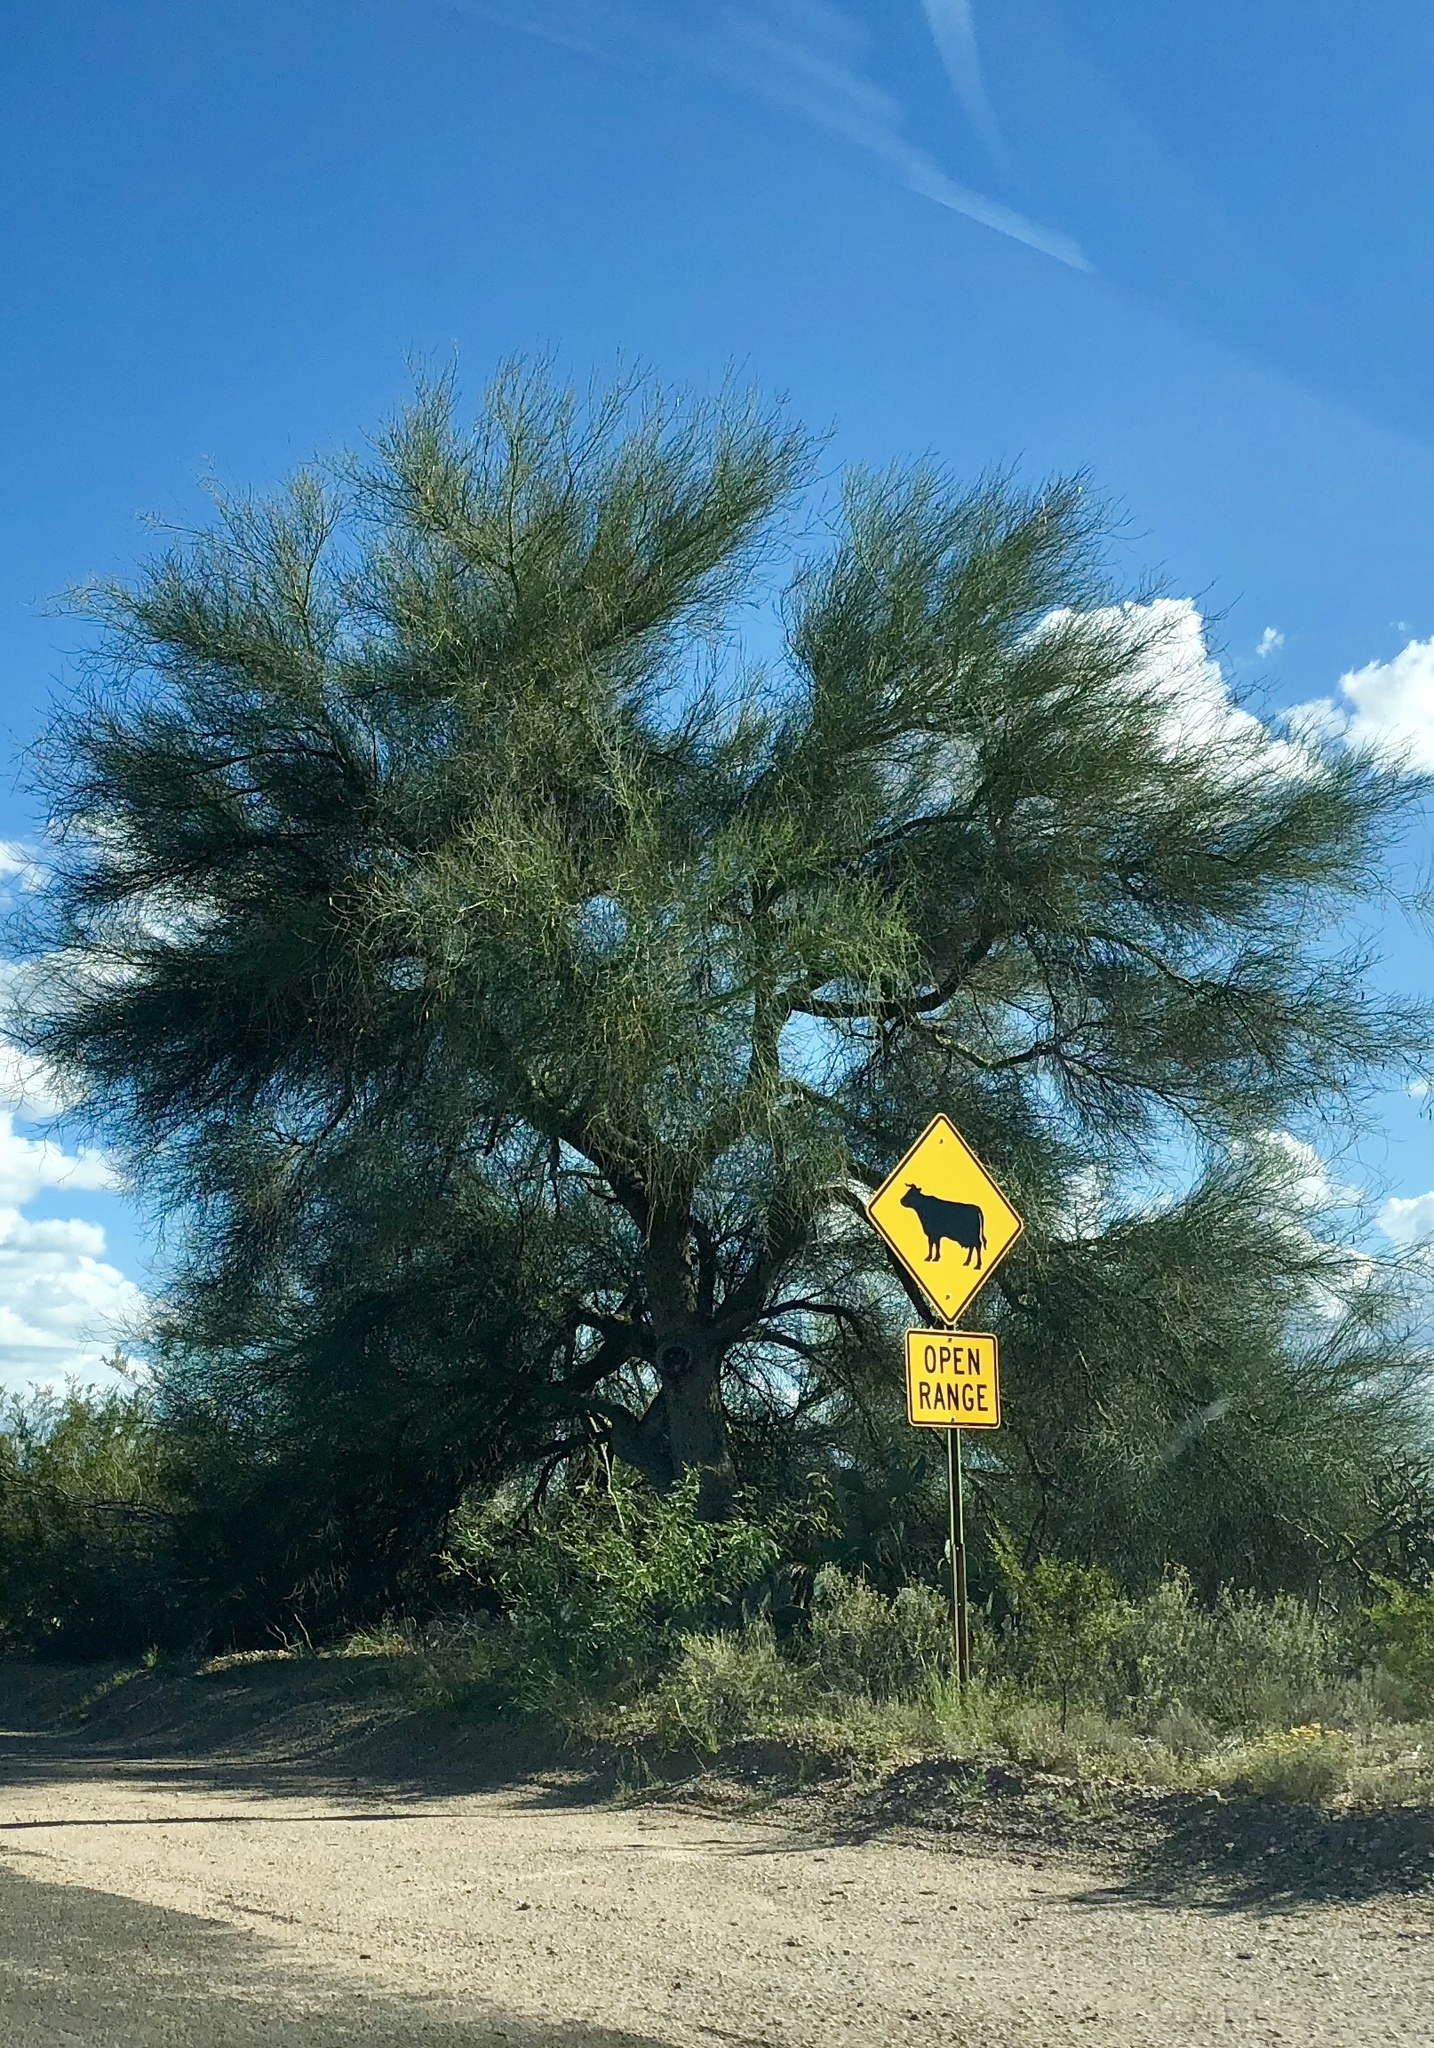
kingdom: Plantae
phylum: Tracheophyta
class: Magnoliopsida
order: Fabales
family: Fabaceae
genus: Parkinsonia
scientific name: Parkinsonia microphylla
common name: Yellow paloverde
